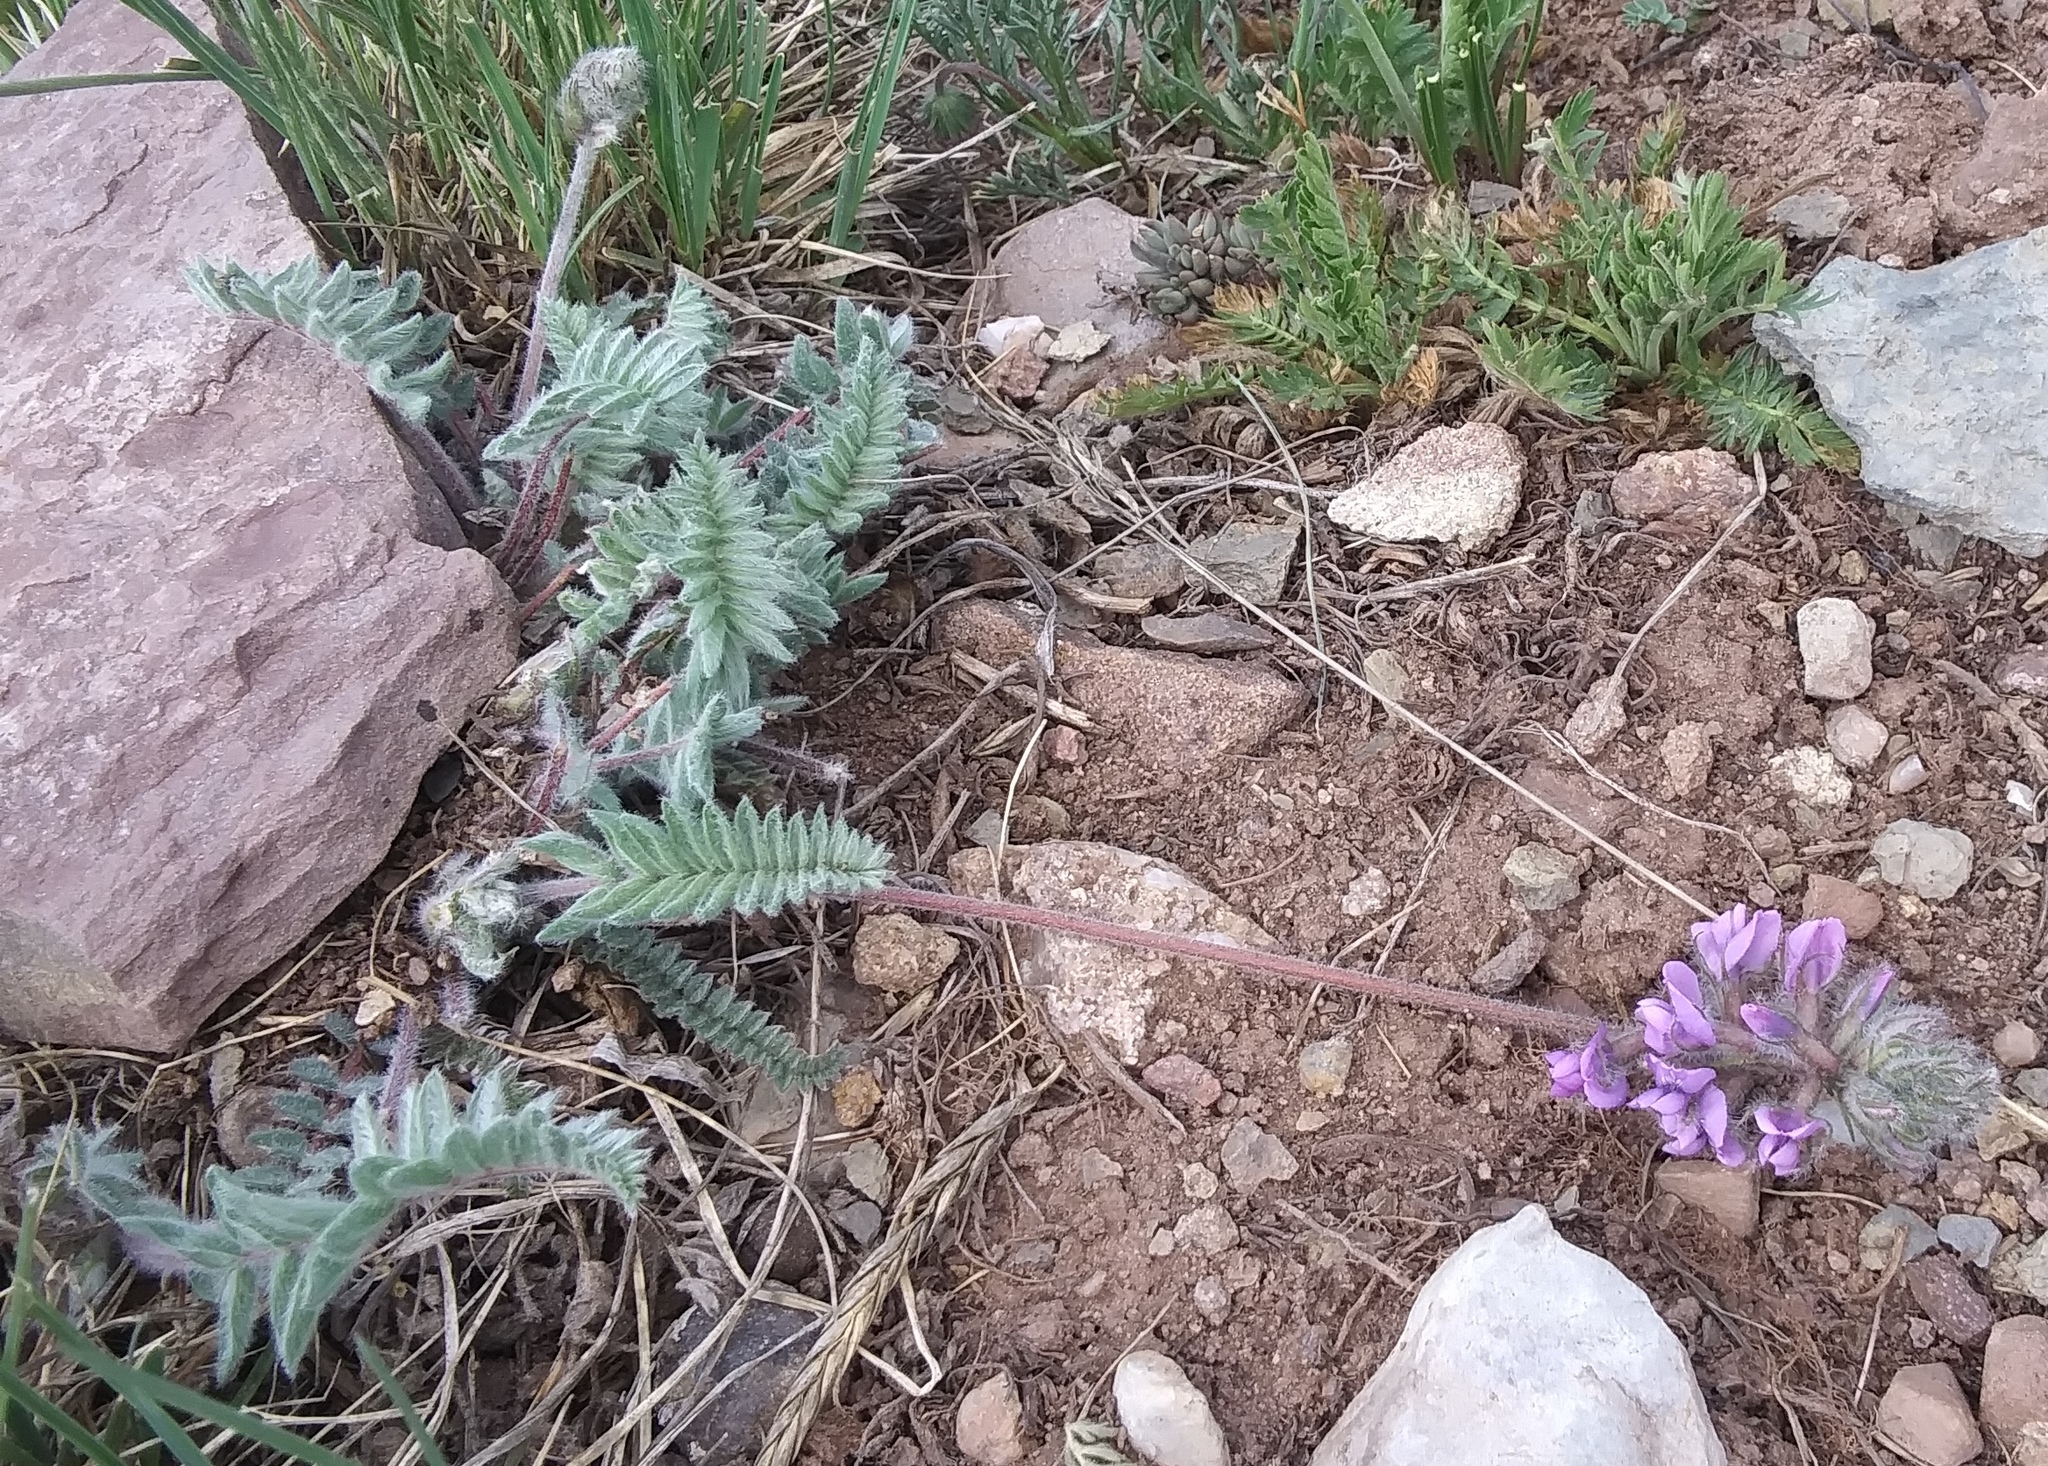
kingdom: Plantae
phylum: Tracheophyta
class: Magnoliopsida
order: Fabales
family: Fabaceae
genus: Oxytropis
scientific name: Oxytropis deflexa
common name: Stemmed oxytrope
